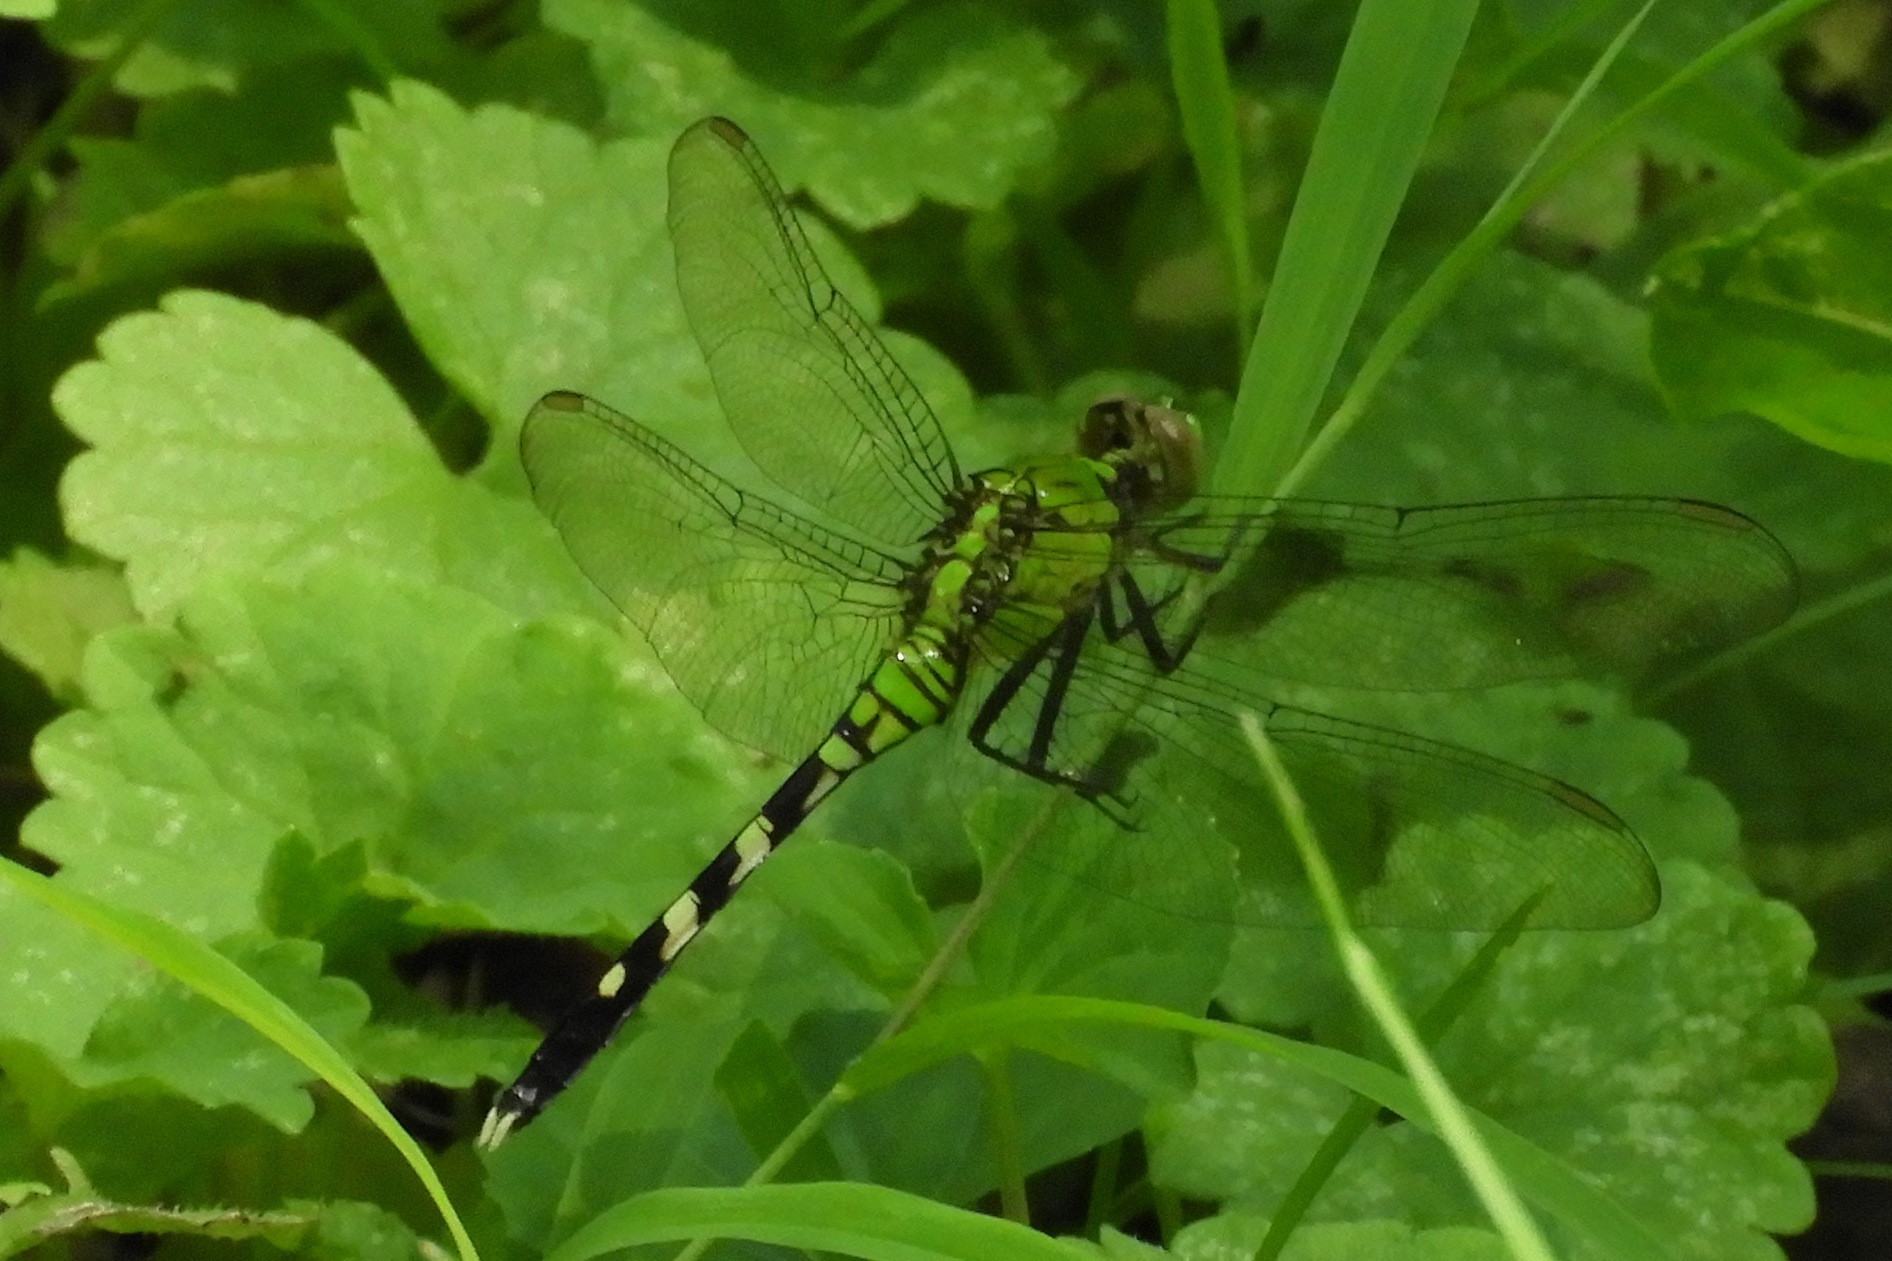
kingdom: Animalia
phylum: Arthropoda
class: Insecta
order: Odonata
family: Libellulidae
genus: Erythemis
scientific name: Erythemis simplicicollis
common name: Eastern pondhawk
